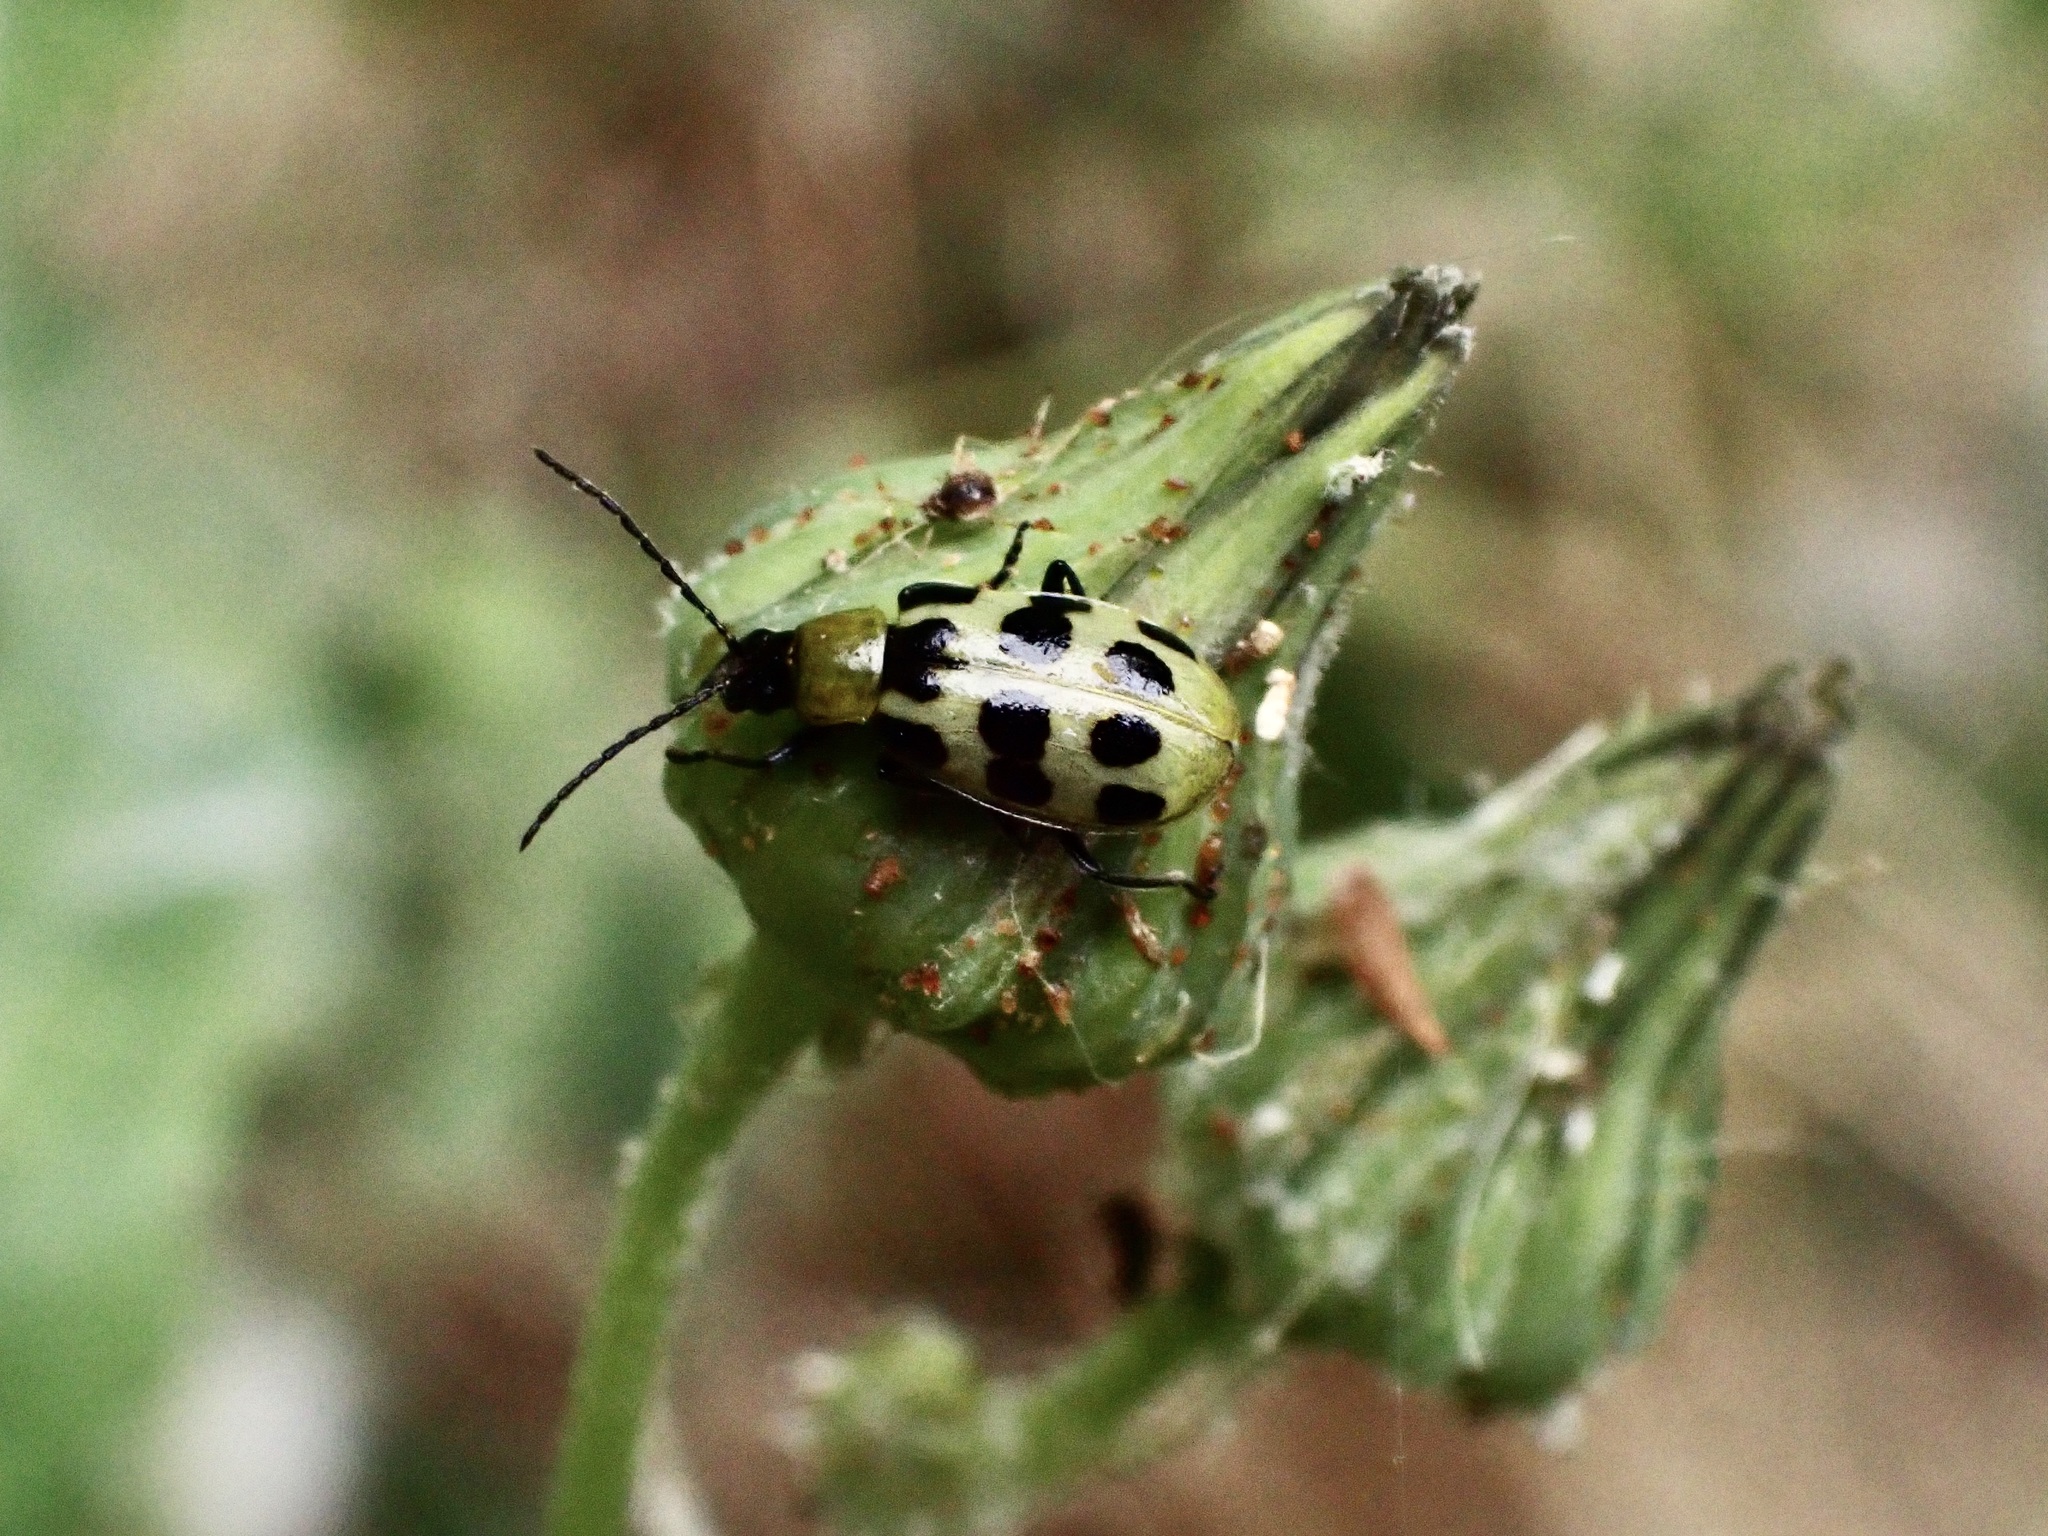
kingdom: Animalia
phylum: Arthropoda
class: Insecta
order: Coleoptera
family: Chrysomelidae
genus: Diabrotica
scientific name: Diabrotica undecimpunctata
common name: Spotted cucumber beetle
